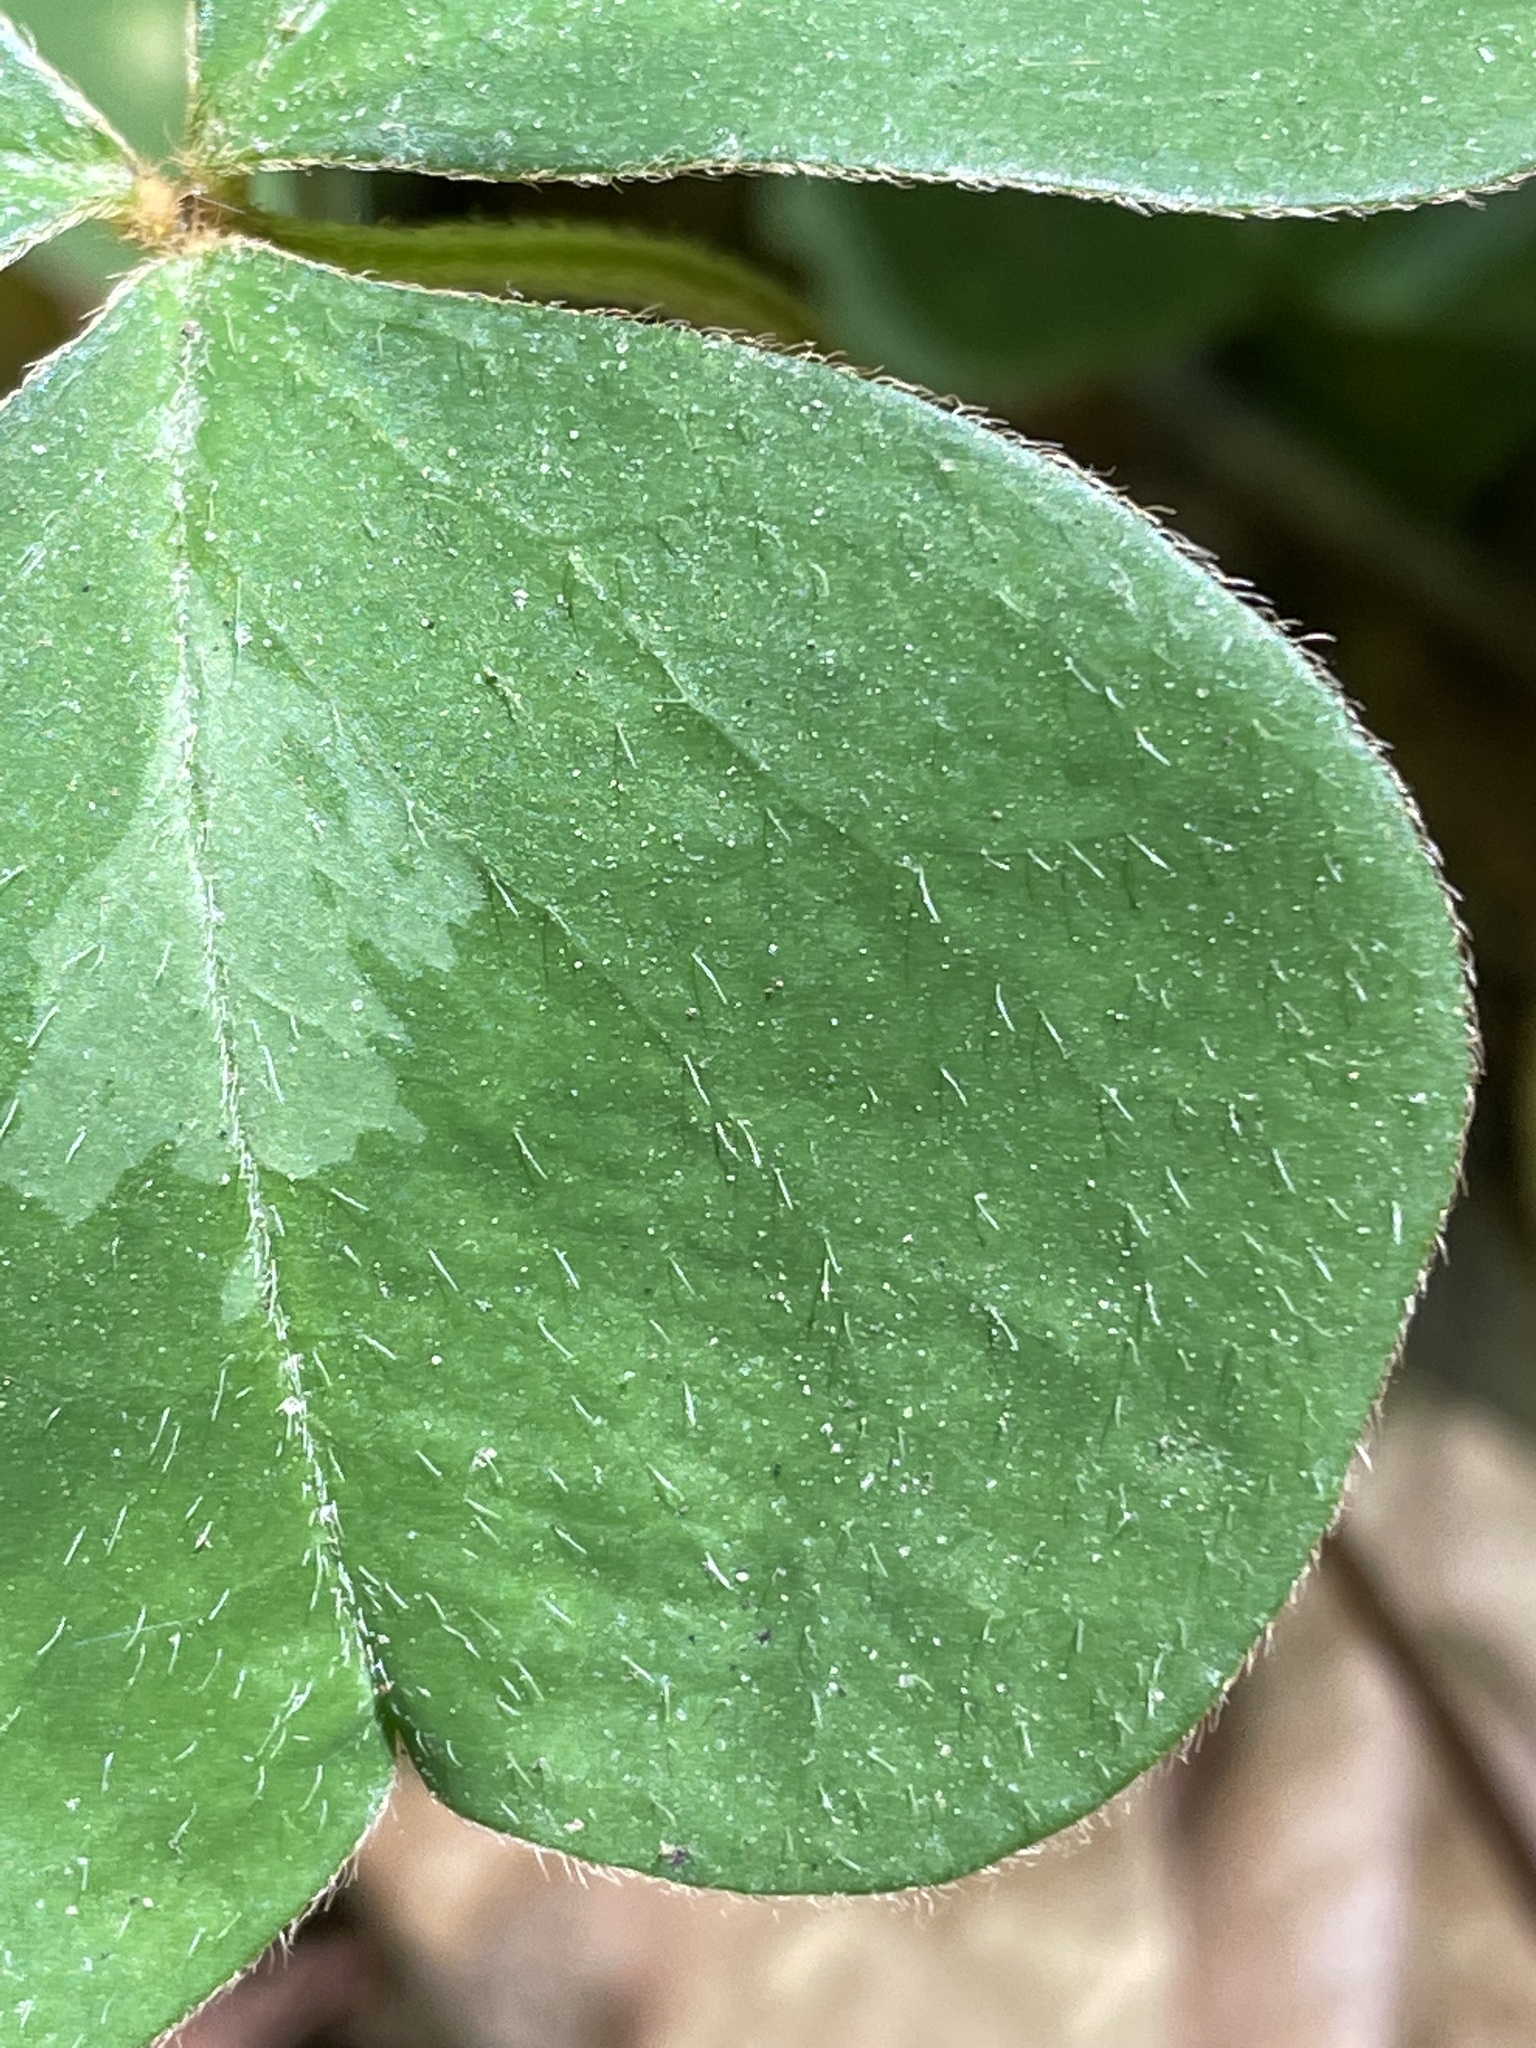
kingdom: Plantae
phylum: Tracheophyta
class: Magnoliopsida
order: Oxalidales
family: Oxalidaceae
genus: Oxalis
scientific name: Oxalis oregana
